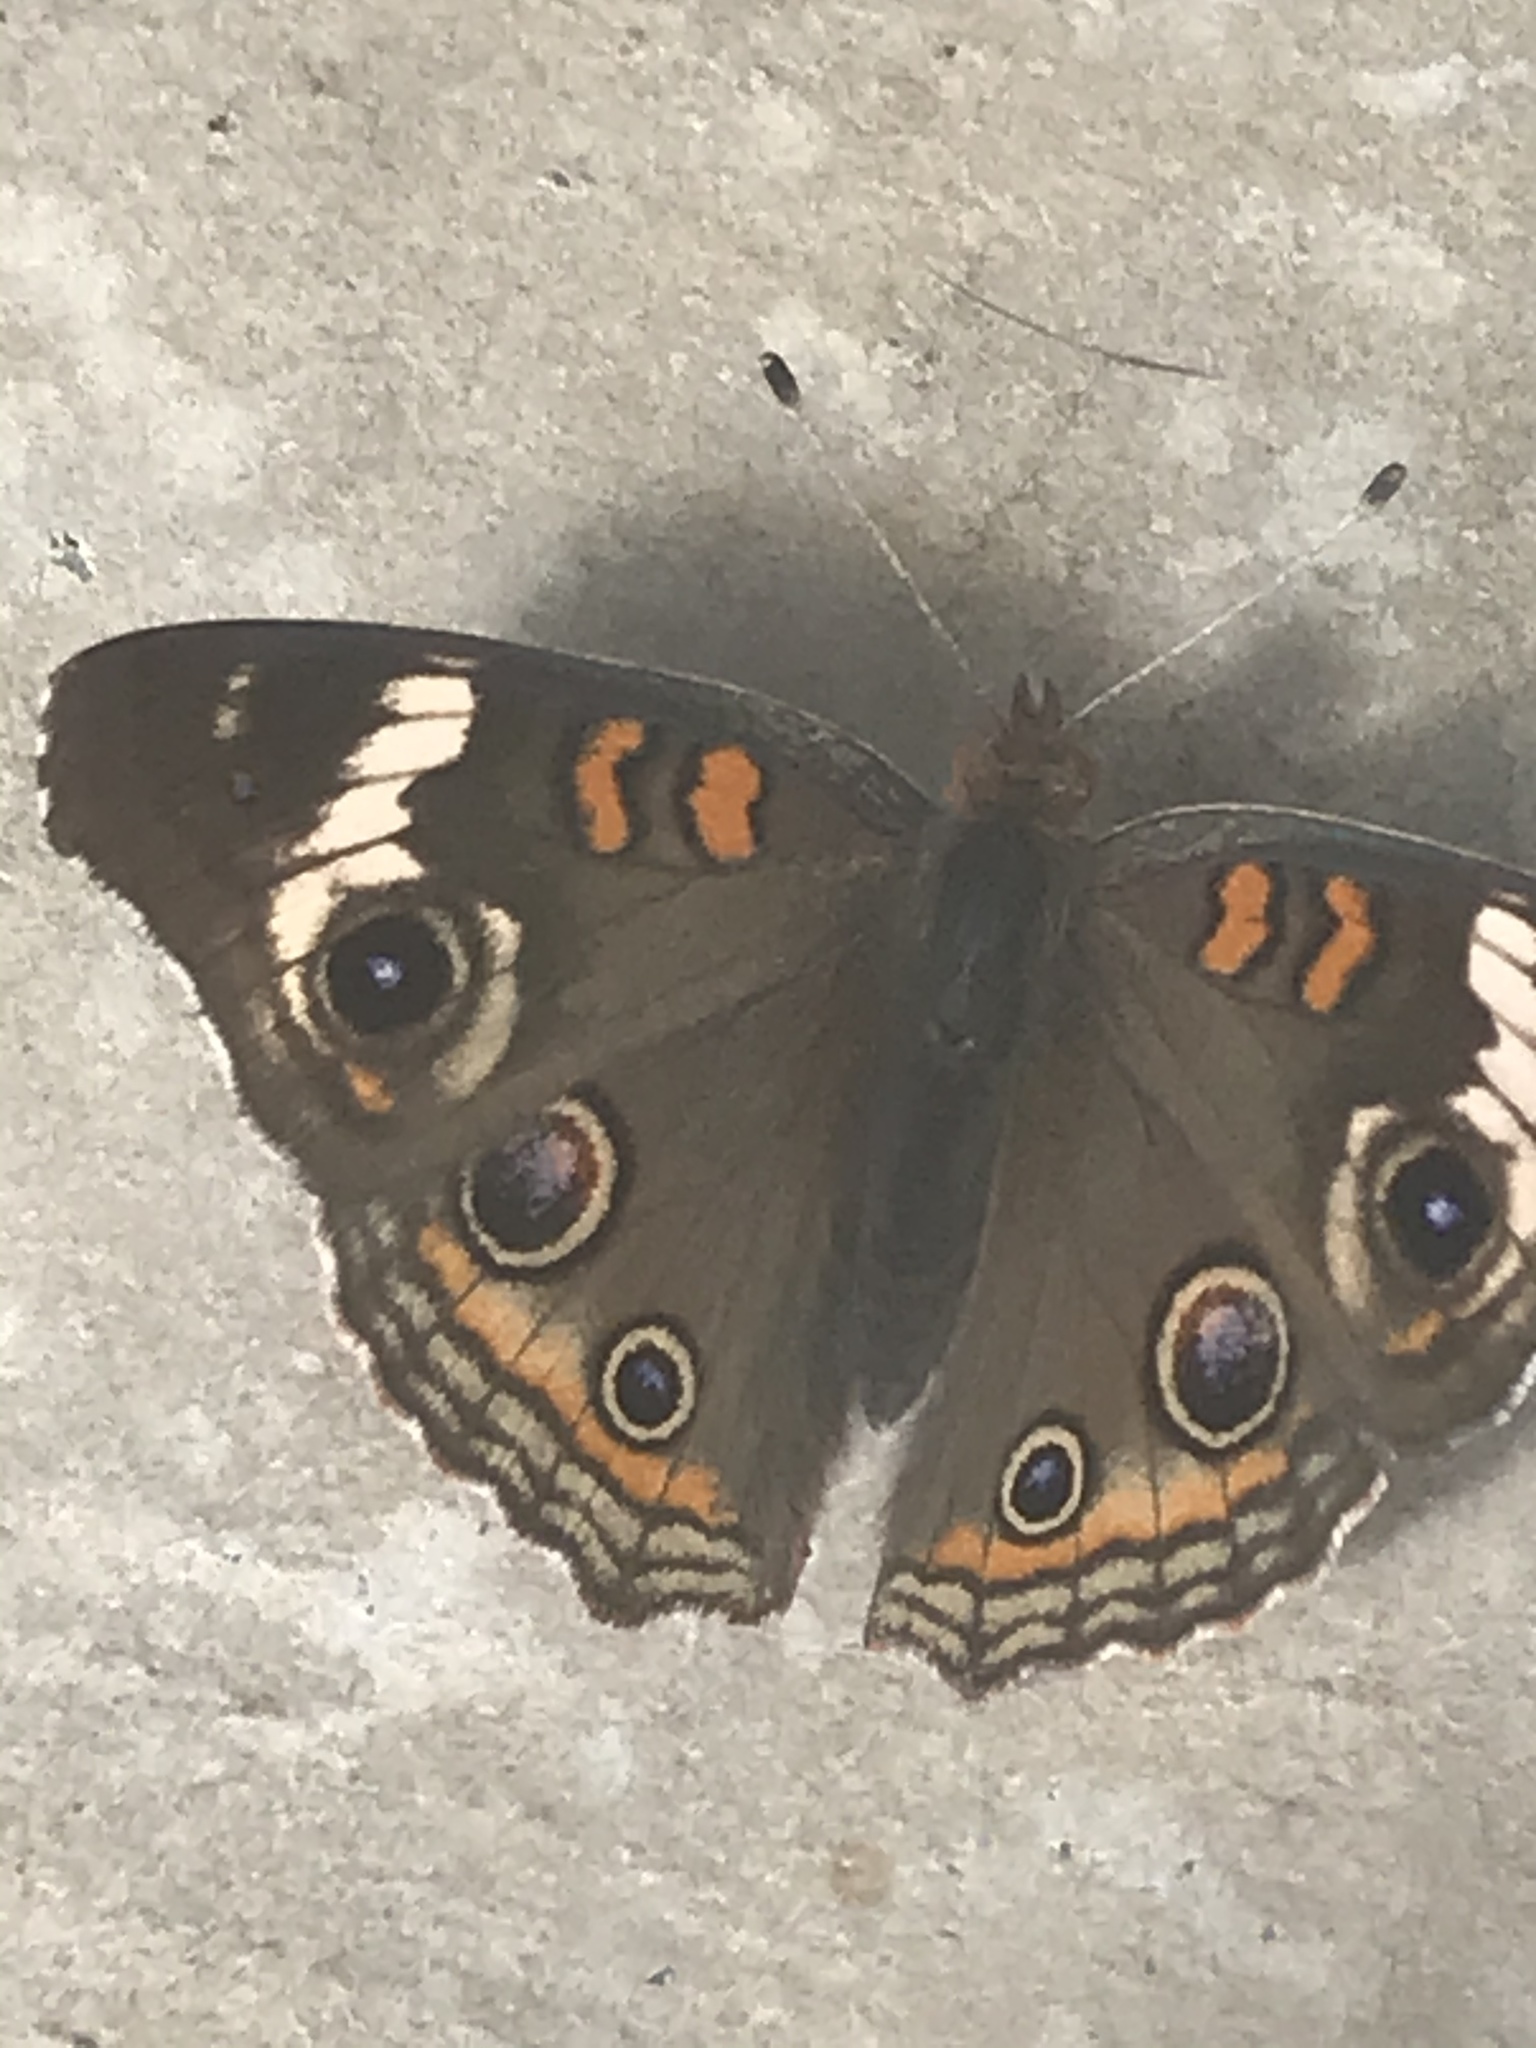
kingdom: Animalia
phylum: Arthropoda
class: Insecta
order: Lepidoptera
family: Nymphalidae
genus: Junonia
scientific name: Junonia coenia
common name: Common buckeye
